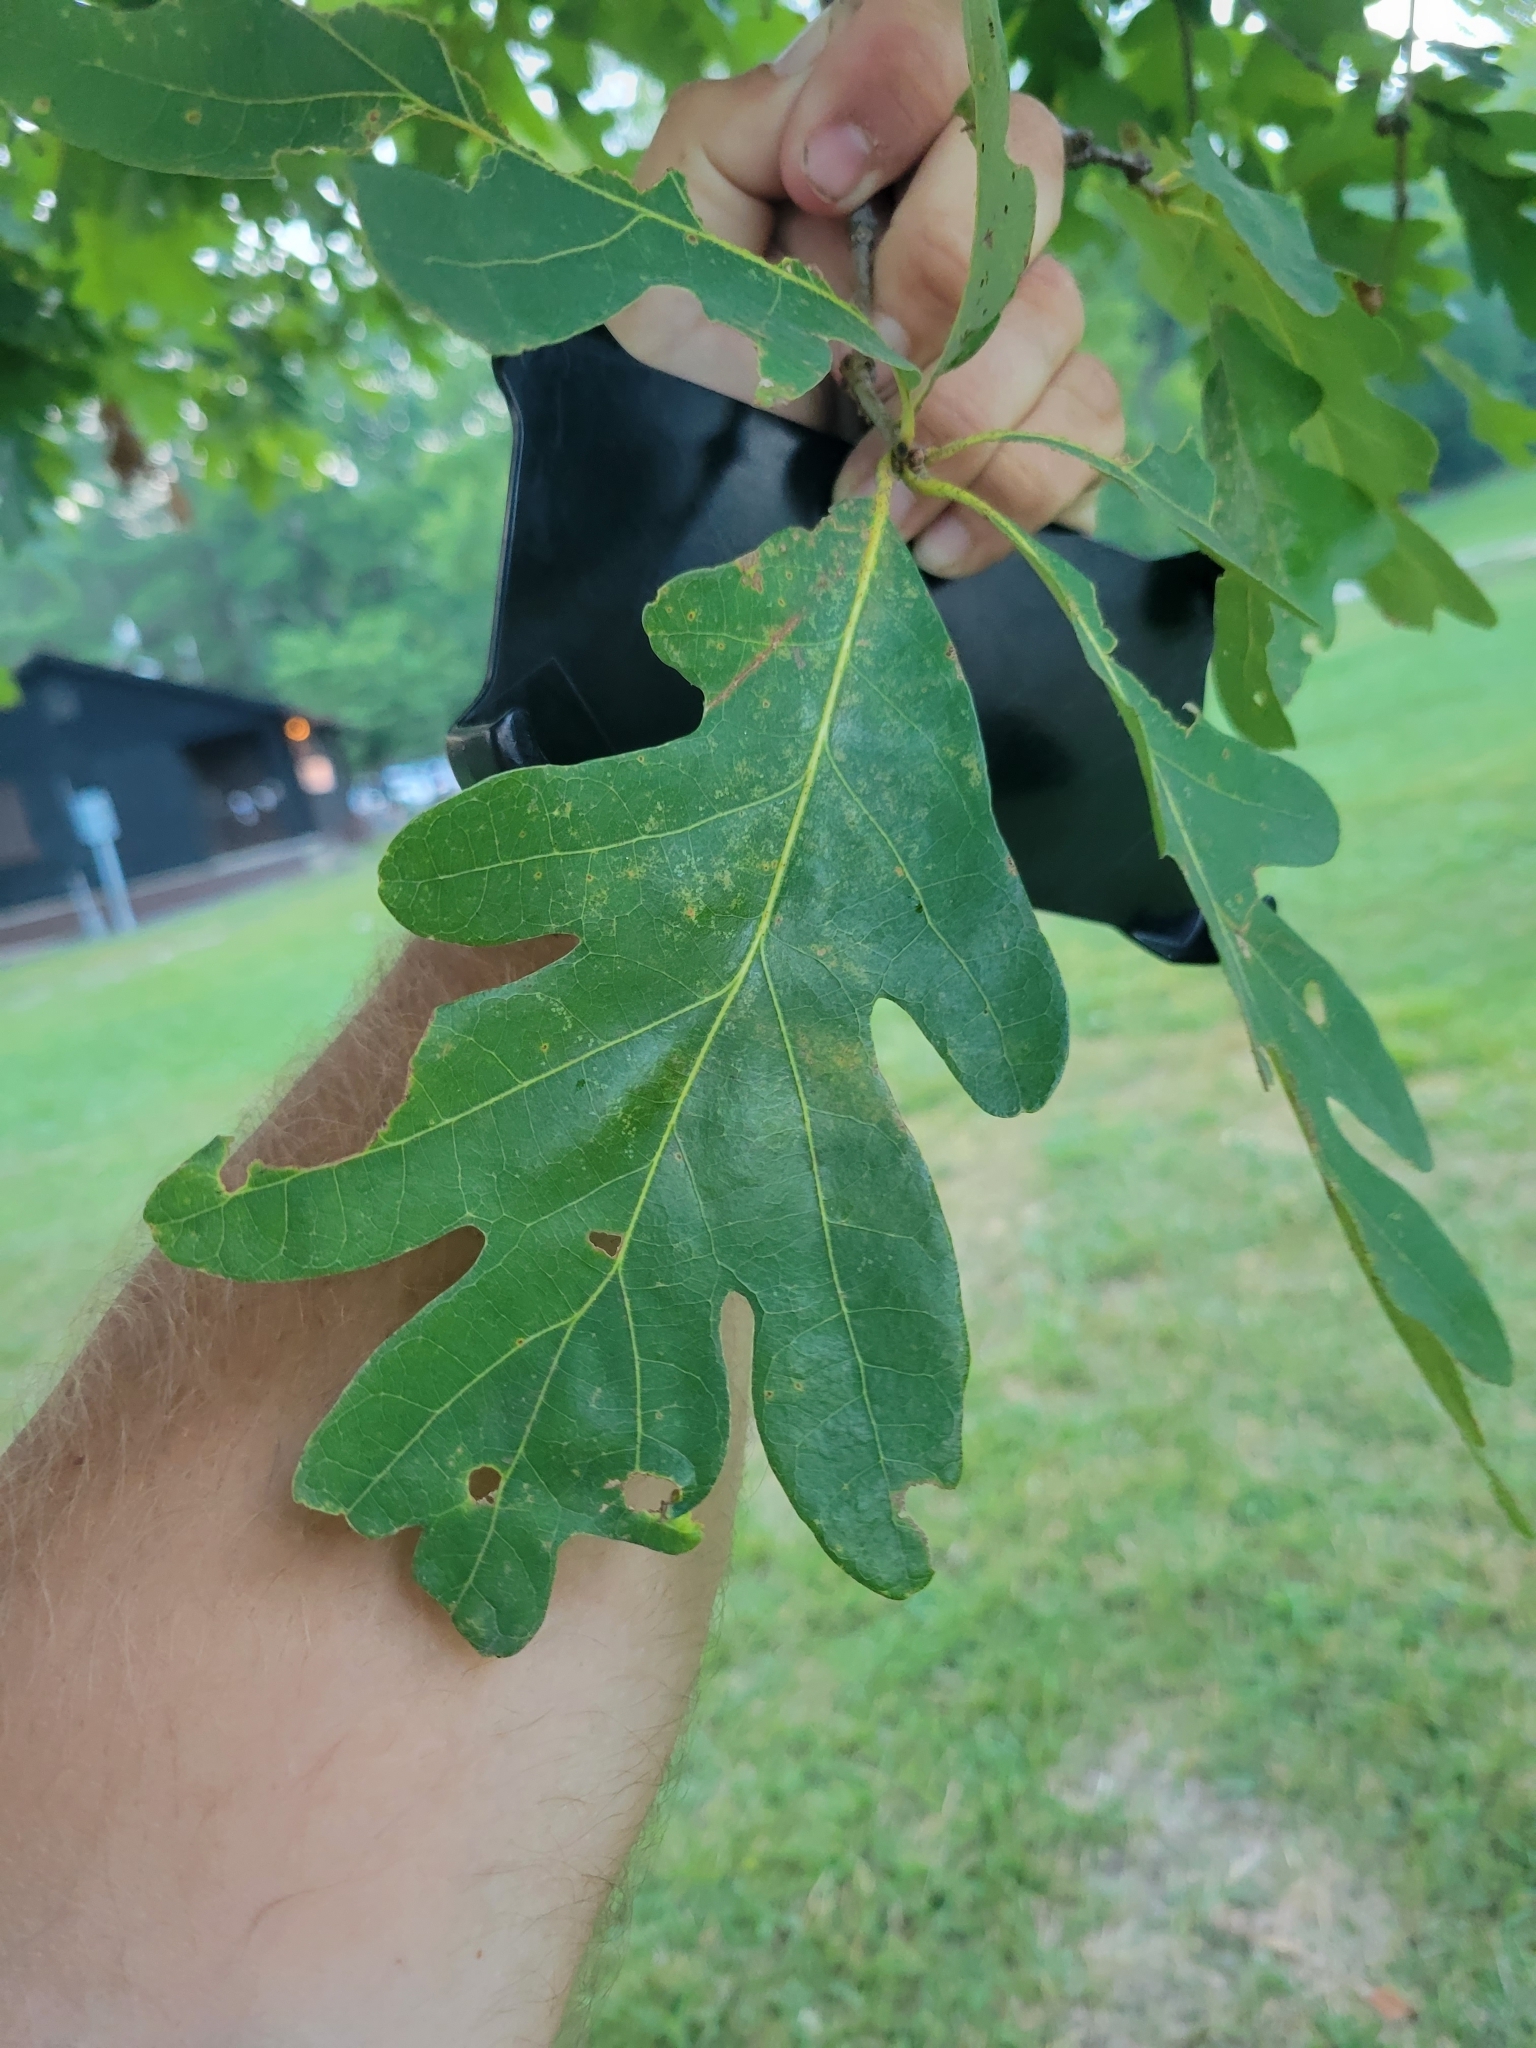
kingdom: Plantae
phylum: Tracheophyta
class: Magnoliopsida
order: Fagales
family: Fagaceae
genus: Quercus
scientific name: Quercus alba
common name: White oak
